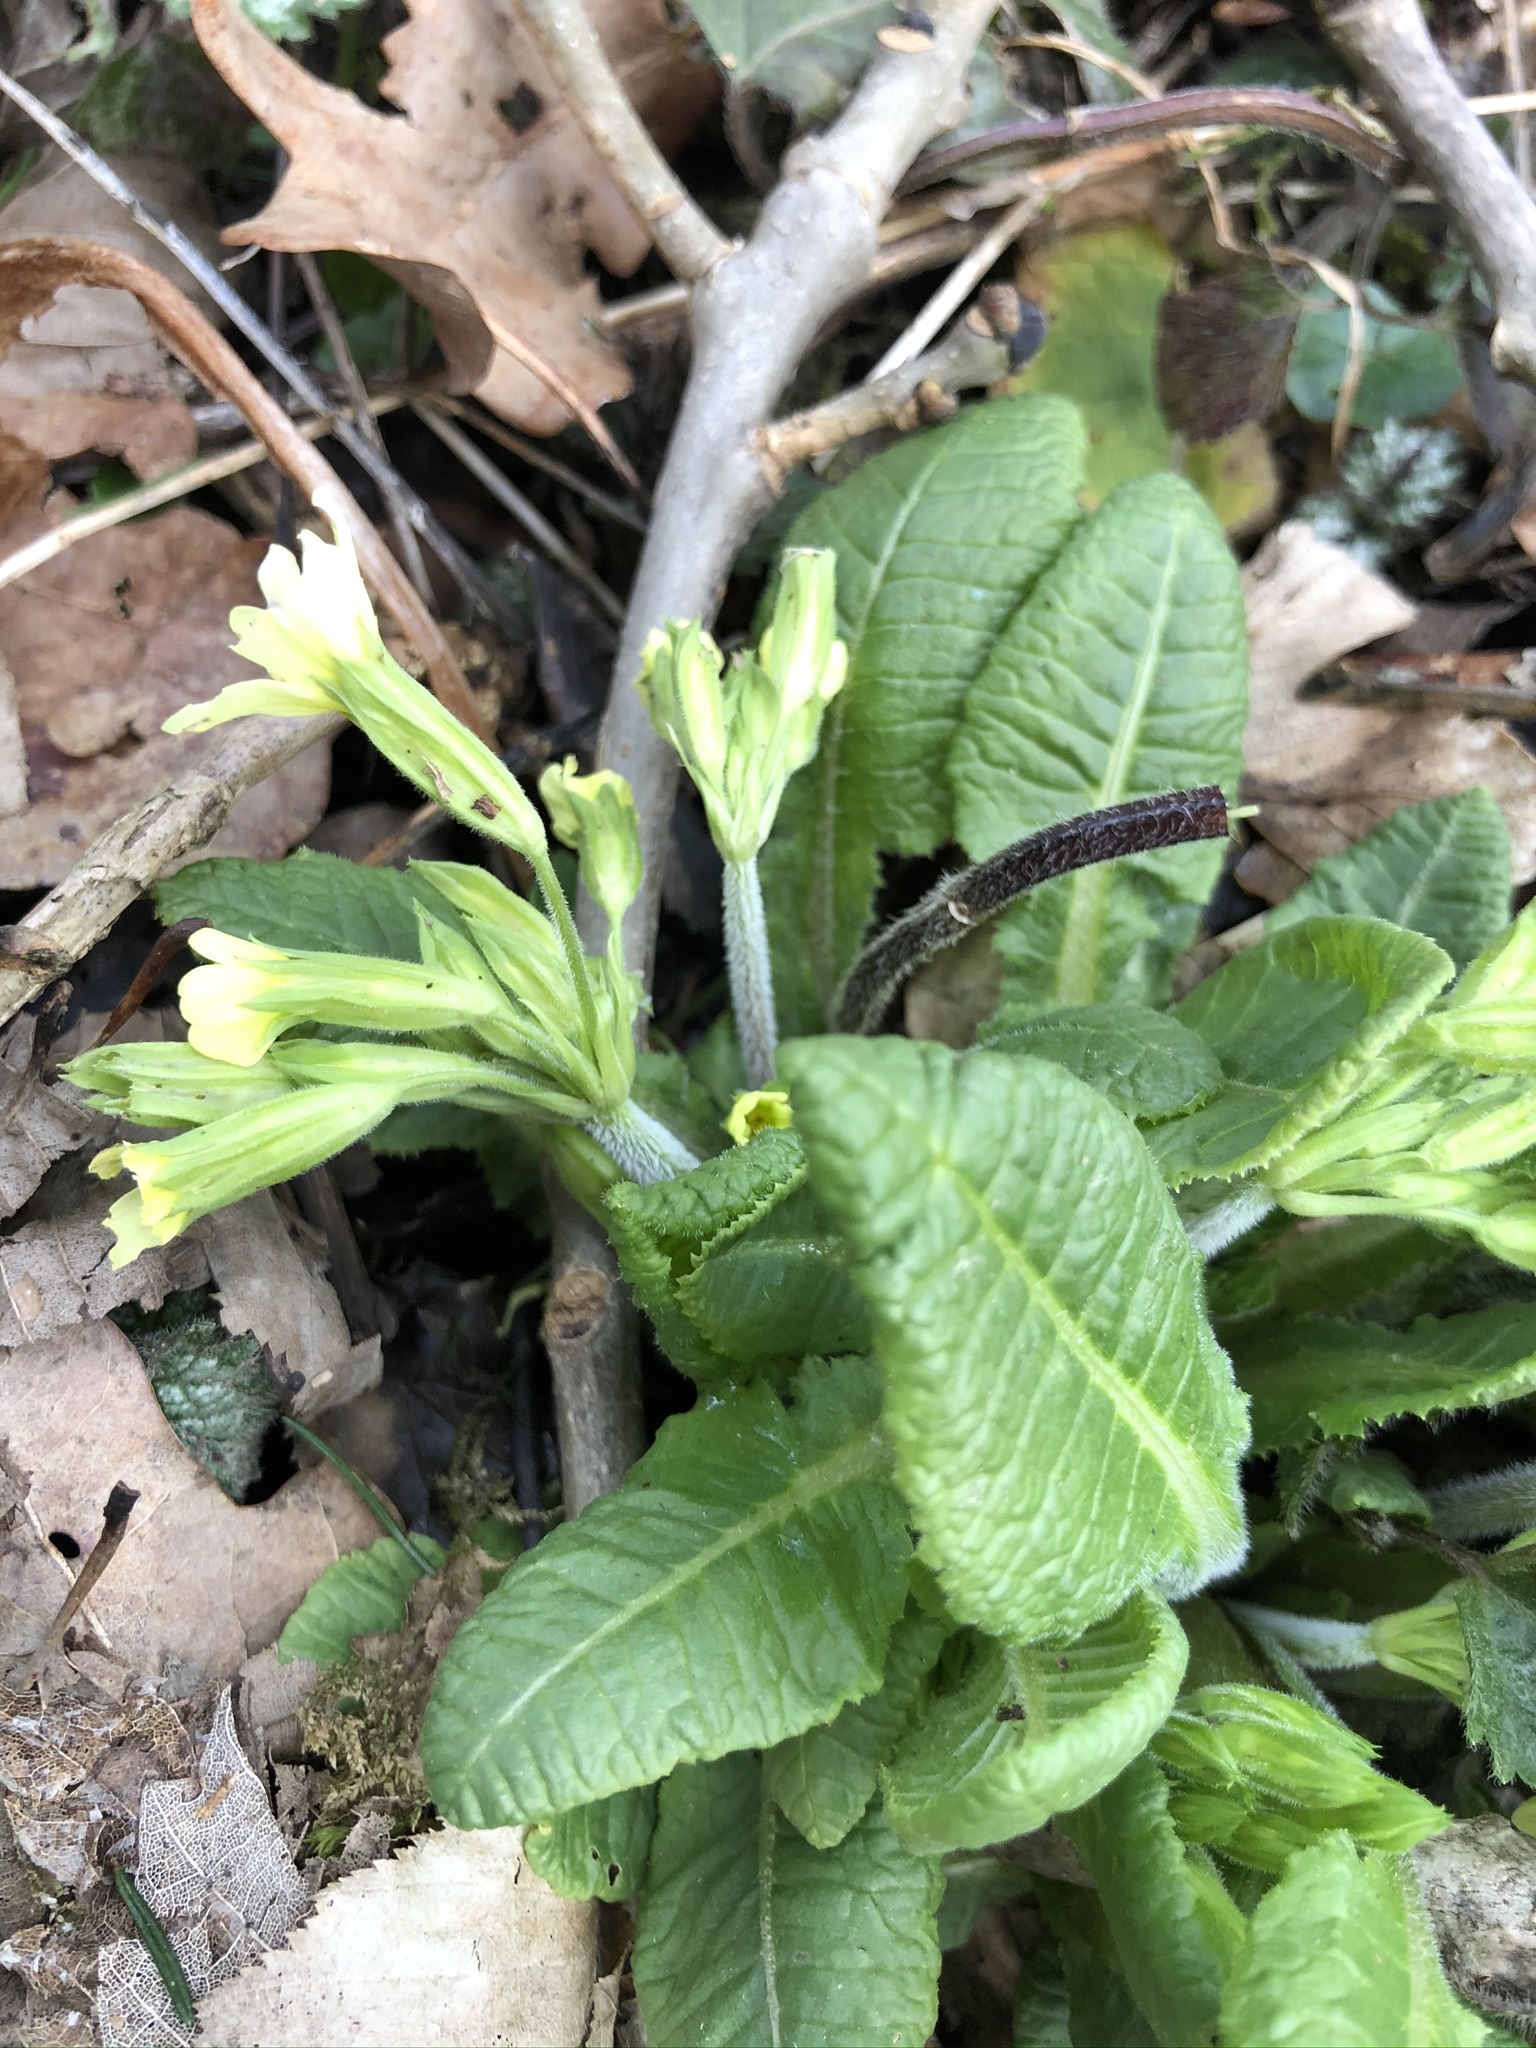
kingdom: Plantae
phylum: Tracheophyta
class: Magnoliopsida
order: Ericales
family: Primulaceae
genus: Primula
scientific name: Primula elatior
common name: Oxlip
